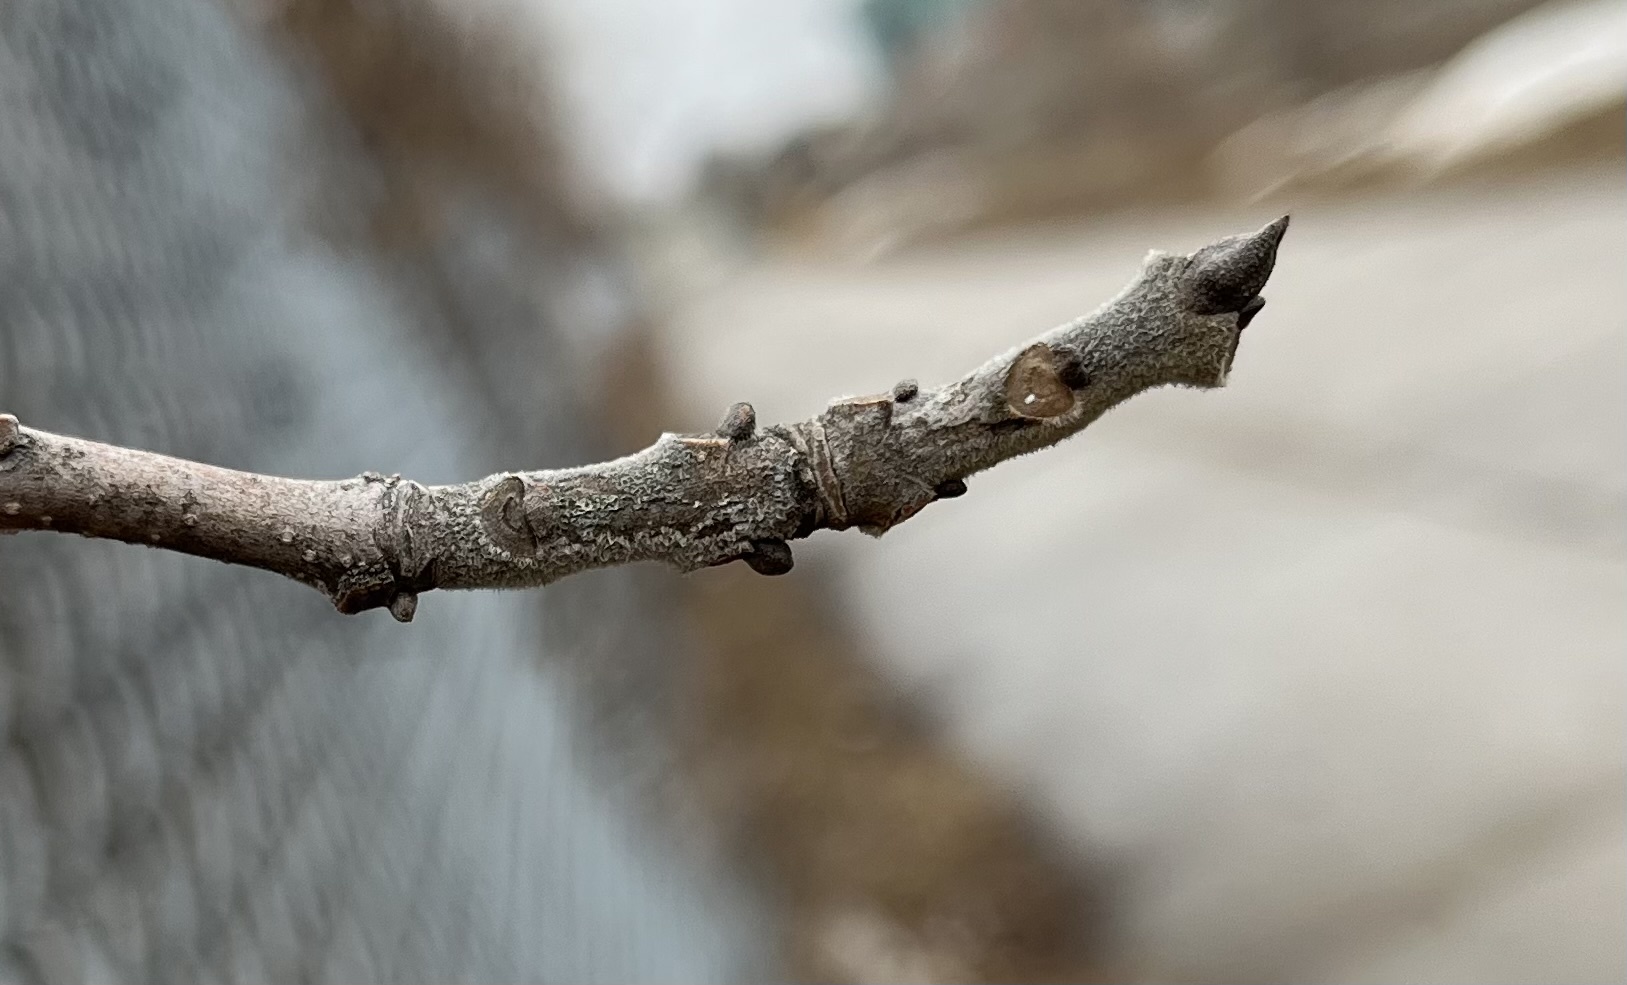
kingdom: Plantae
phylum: Tracheophyta
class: Magnoliopsida
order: Lamiales
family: Oleaceae
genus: Fraxinus
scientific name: Fraxinus pennsylvanica
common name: Green ash
